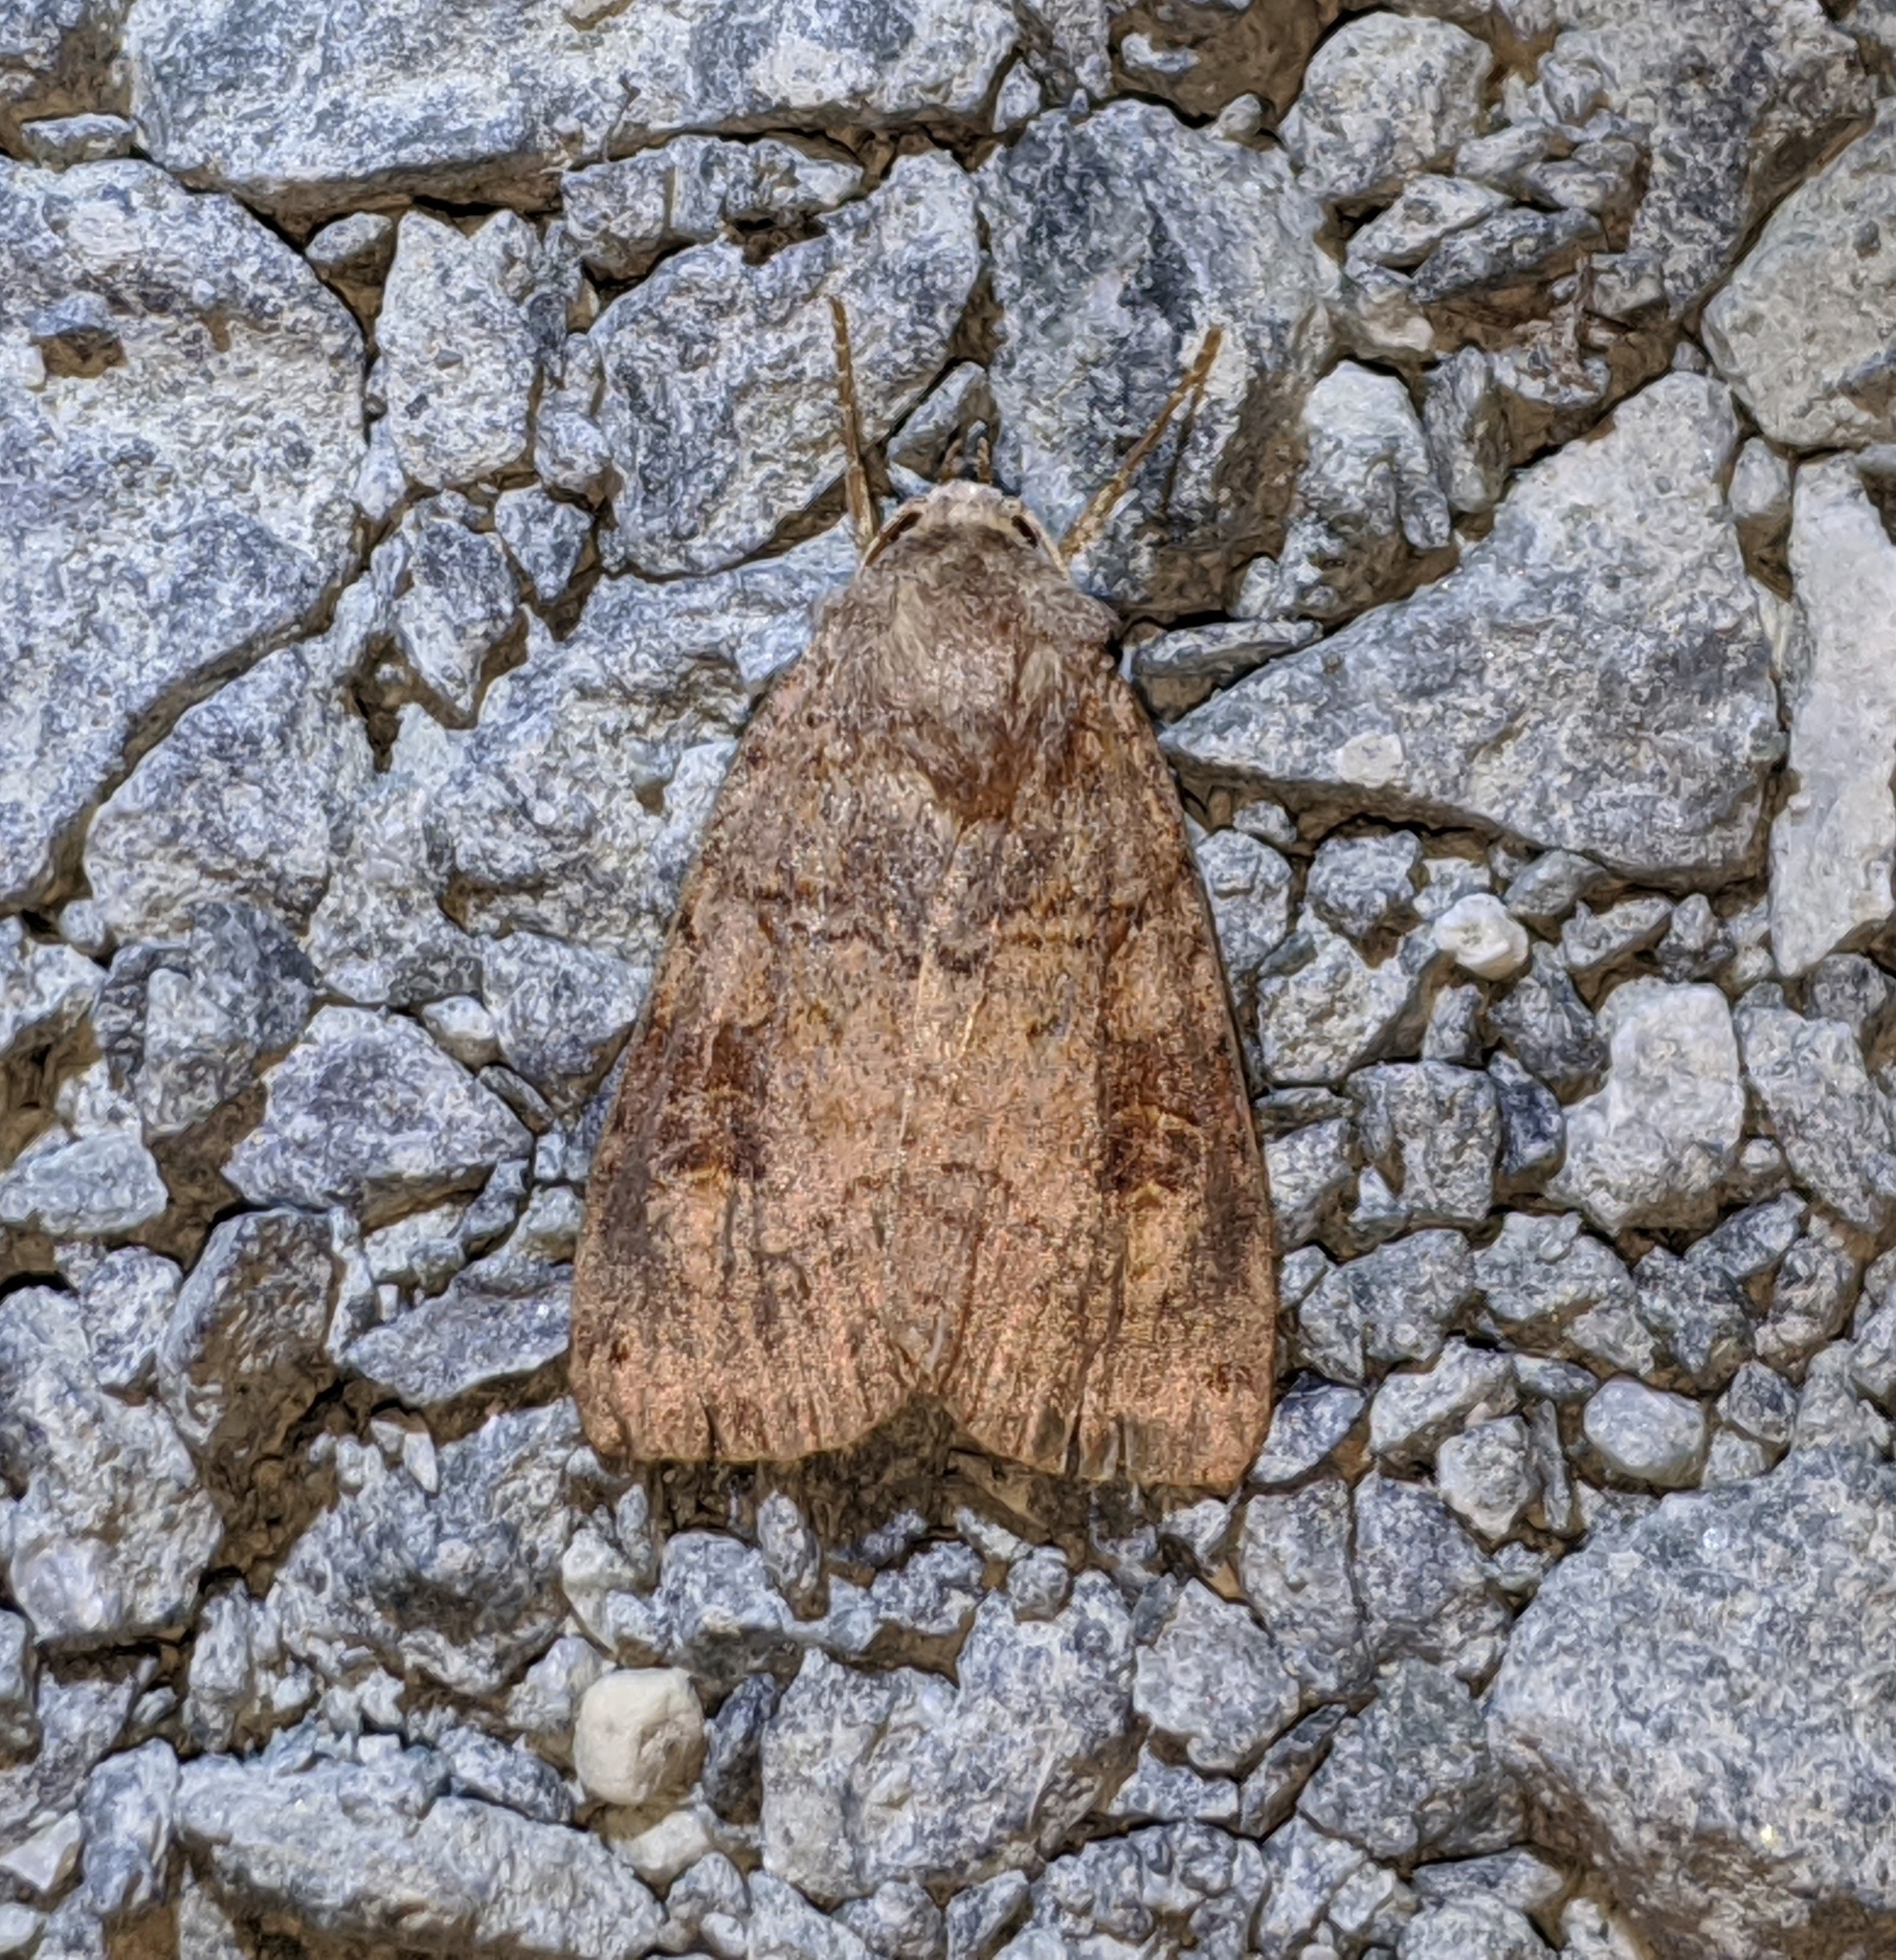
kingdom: Animalia
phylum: Arthropoda
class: Insecta
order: Lepidoptera
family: Noctuidae
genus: Xestia
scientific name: Xestia smithii
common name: Smith's dart
